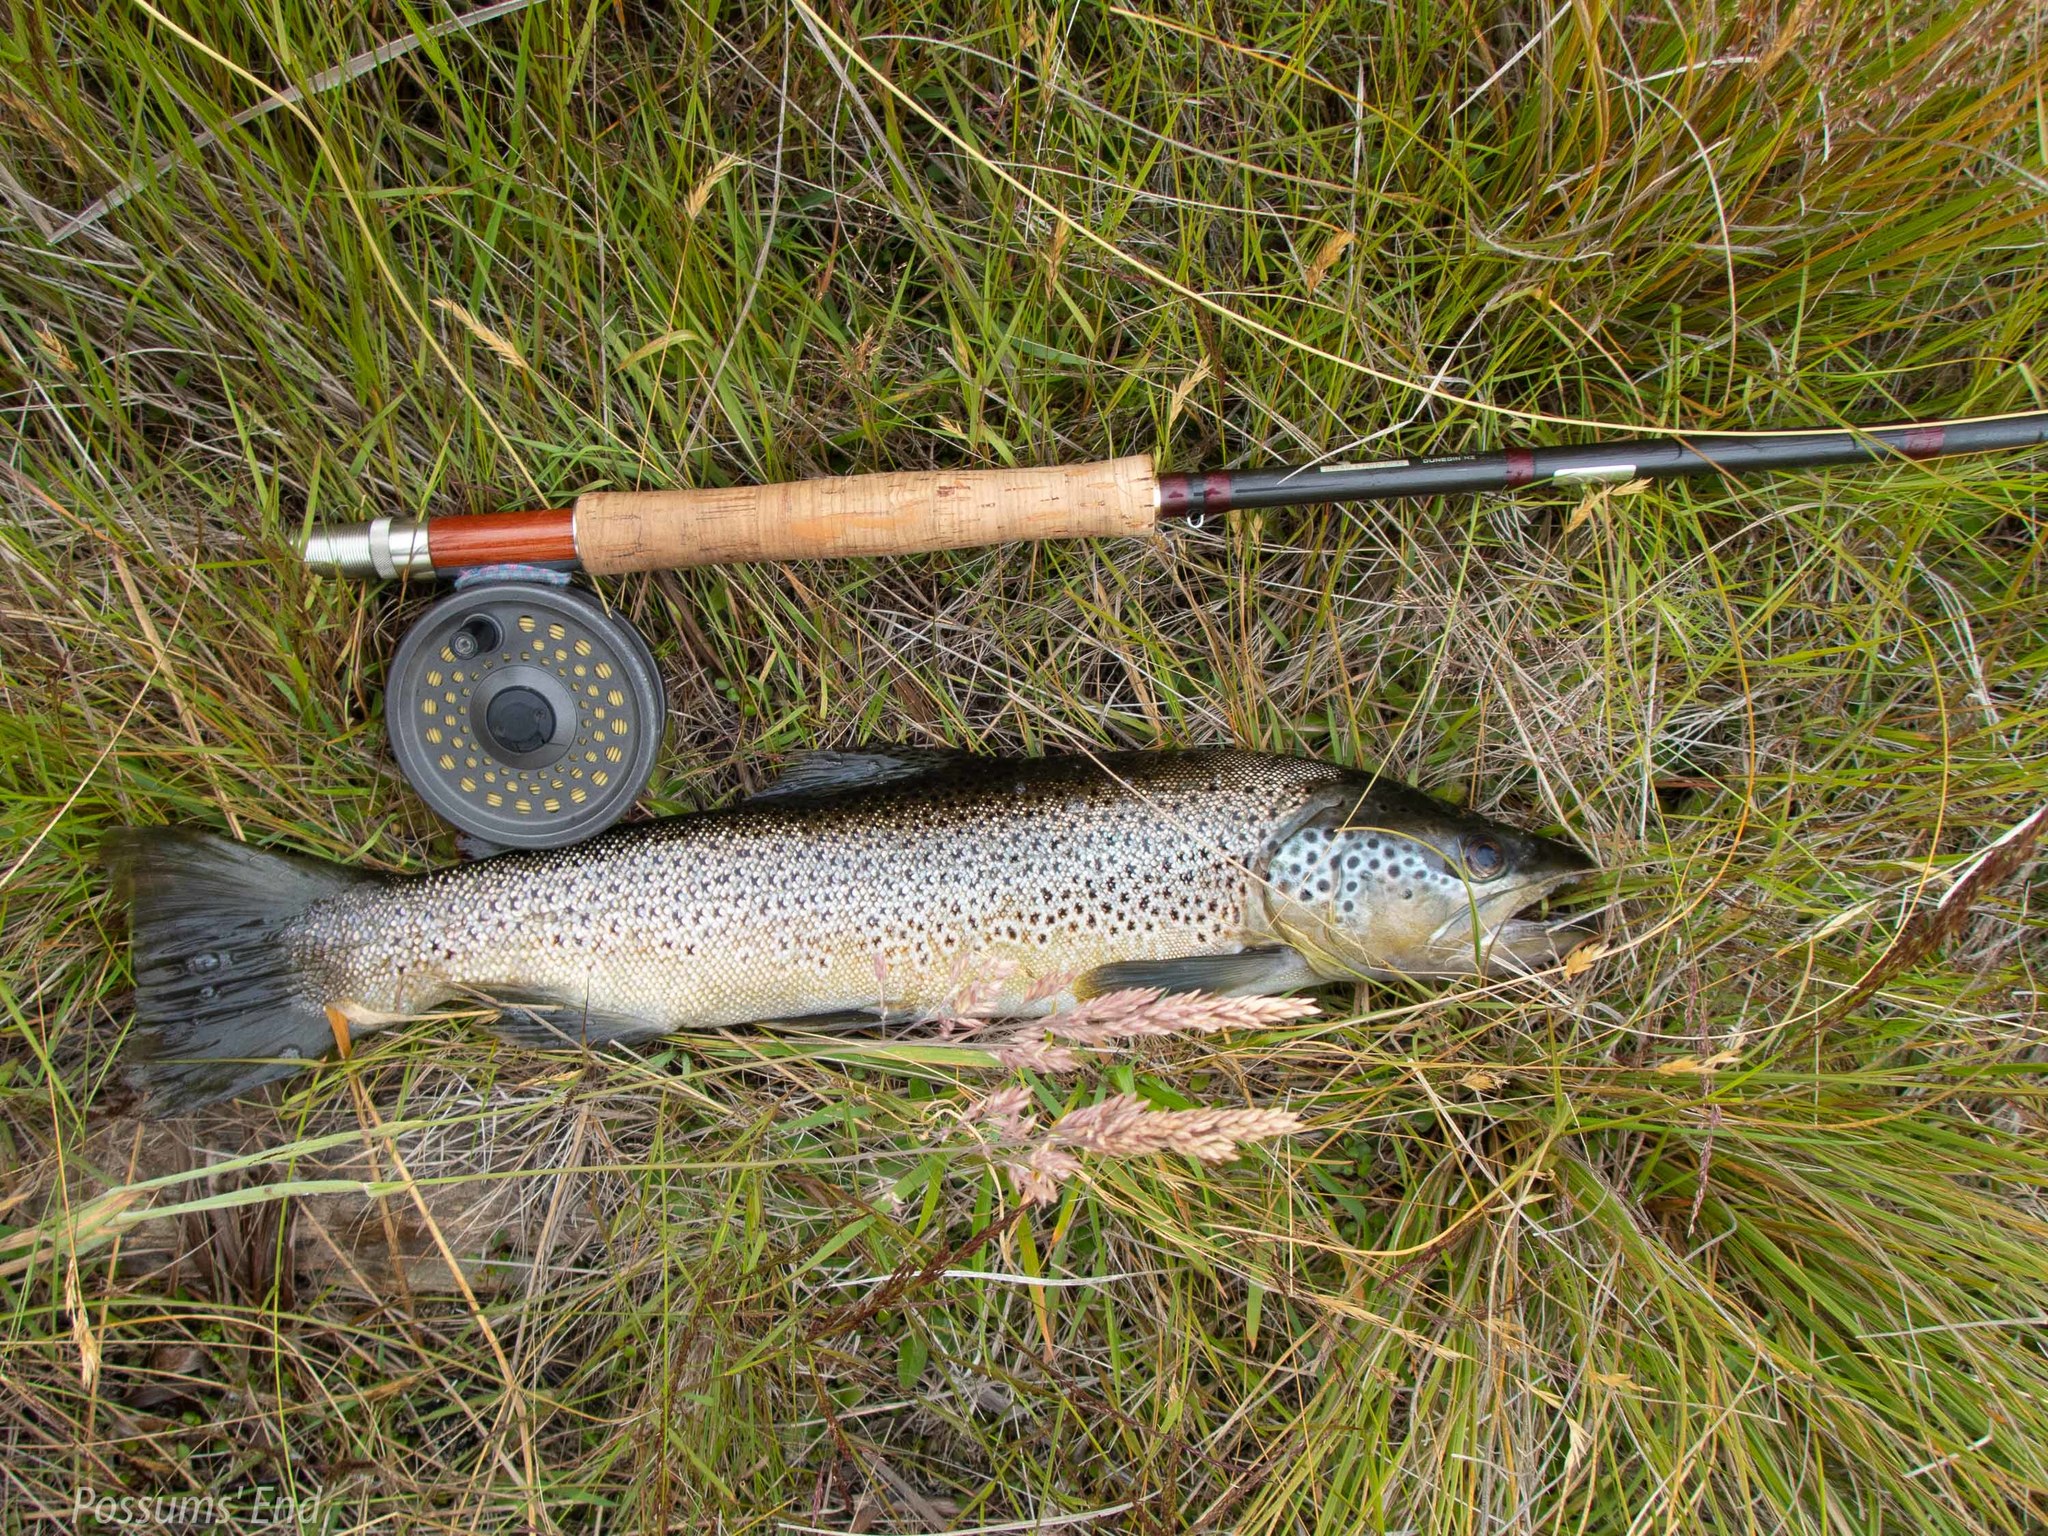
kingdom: Animalia
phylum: Chordata
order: Salmoniformes
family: Salmonidae
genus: Salmo
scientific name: Salmo trutta
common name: Brown trout
